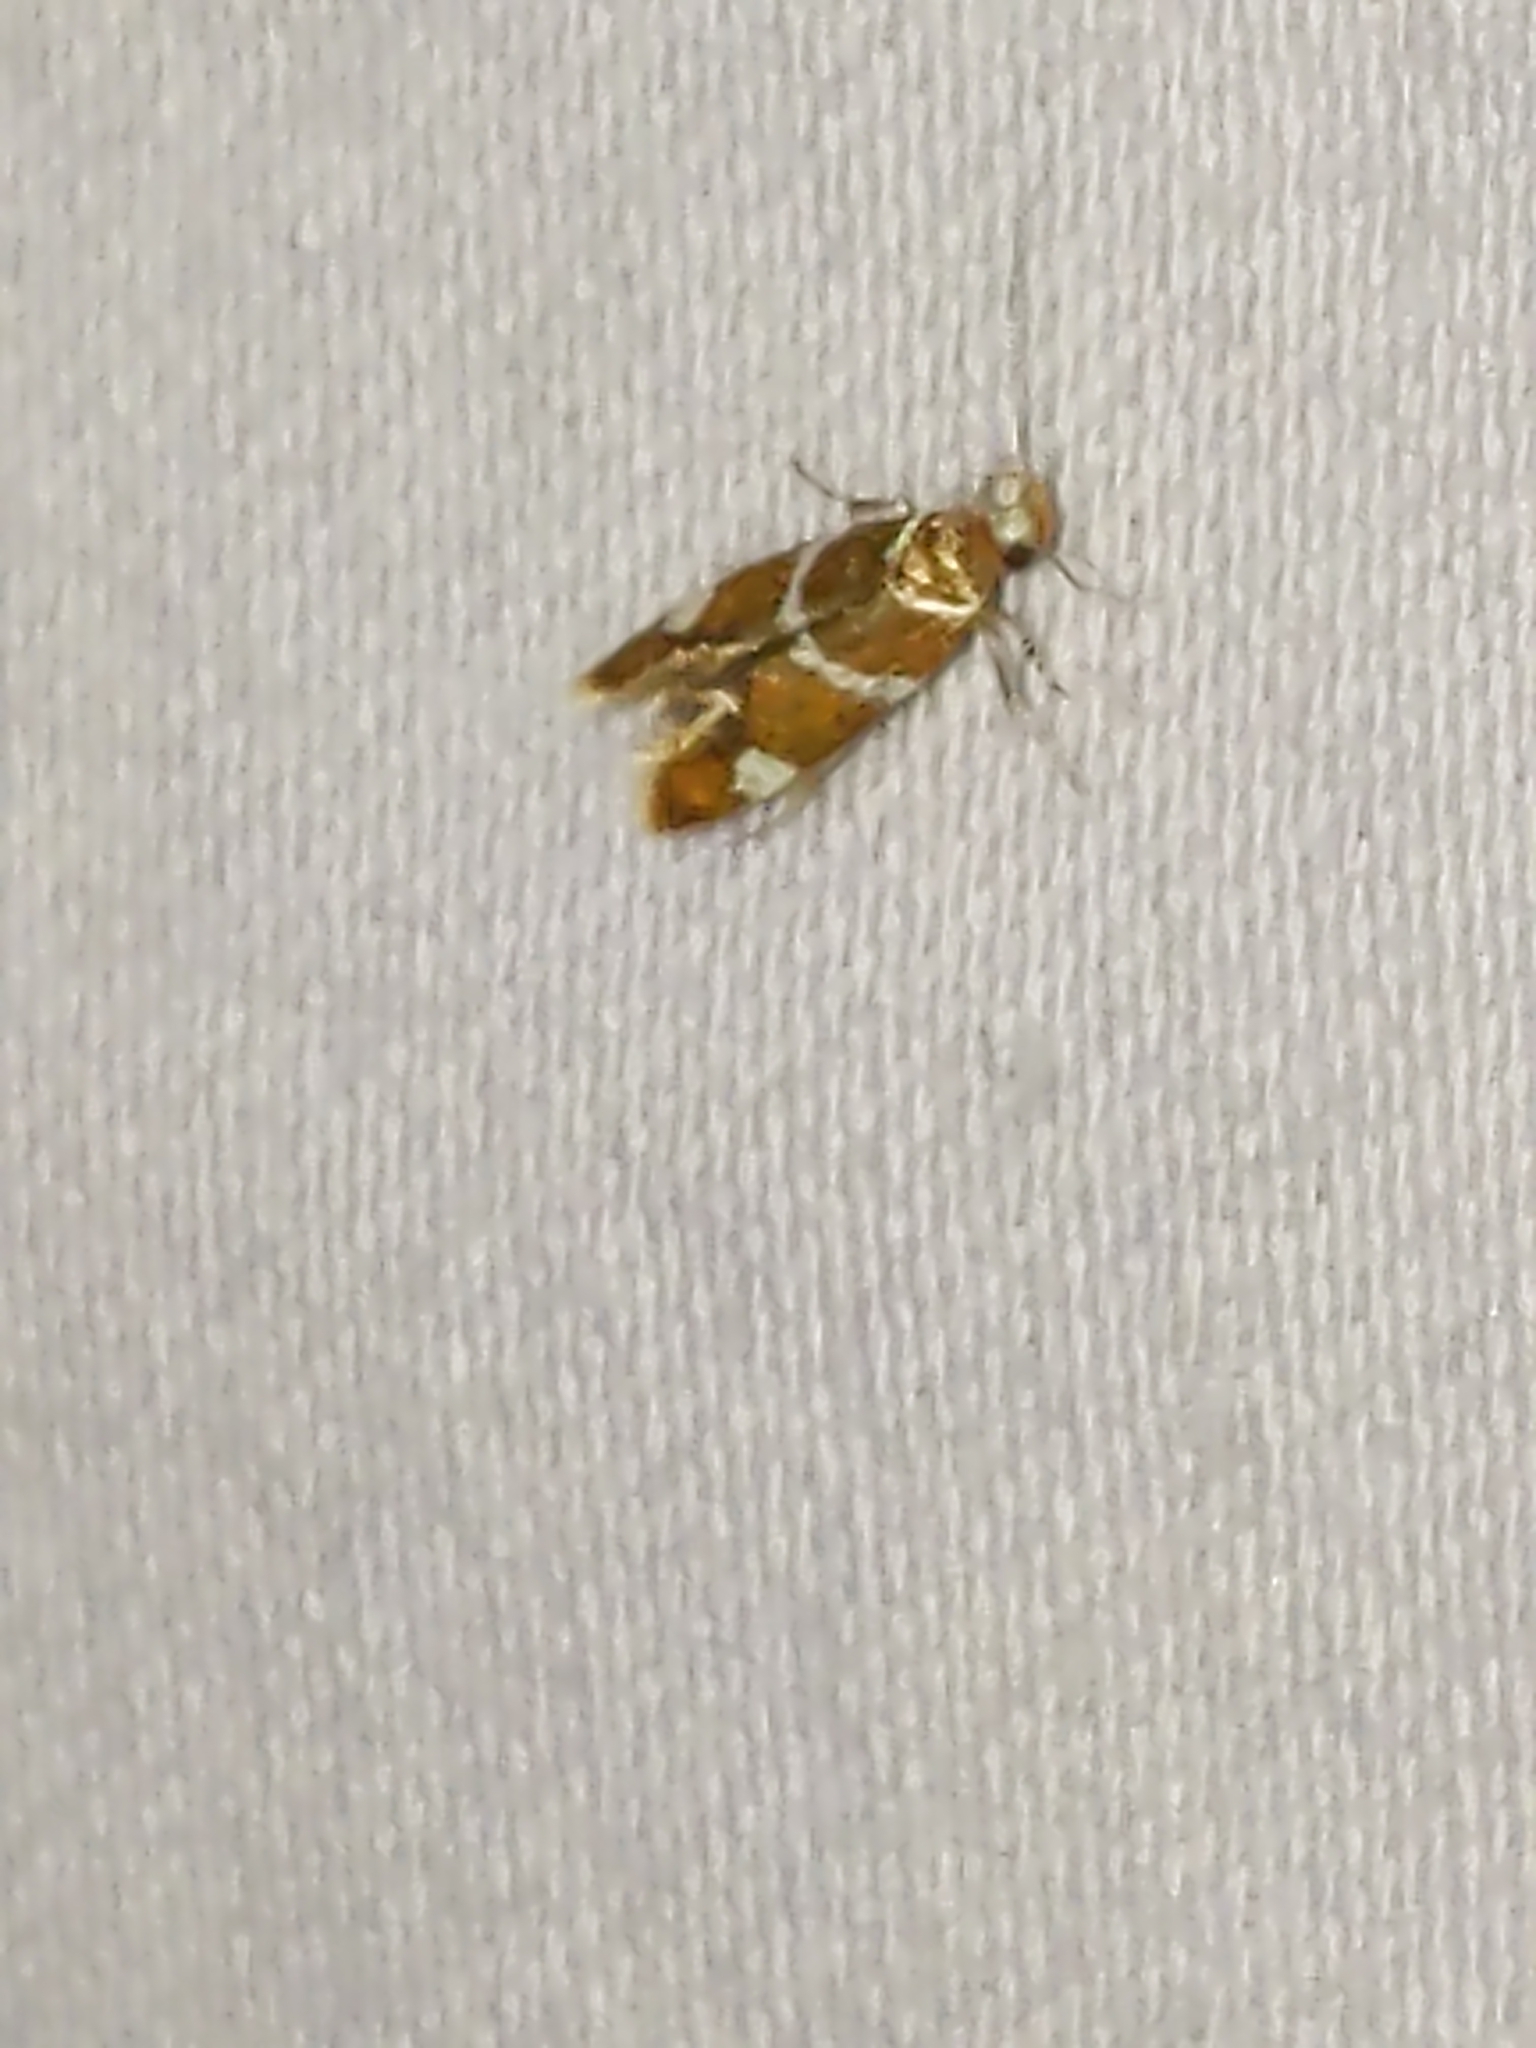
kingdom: Animalia
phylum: Arthropoda
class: Insecta
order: Lepidoptera
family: Oecophoridae
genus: Promalactis
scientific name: Promalactis suzukiella
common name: Moth
